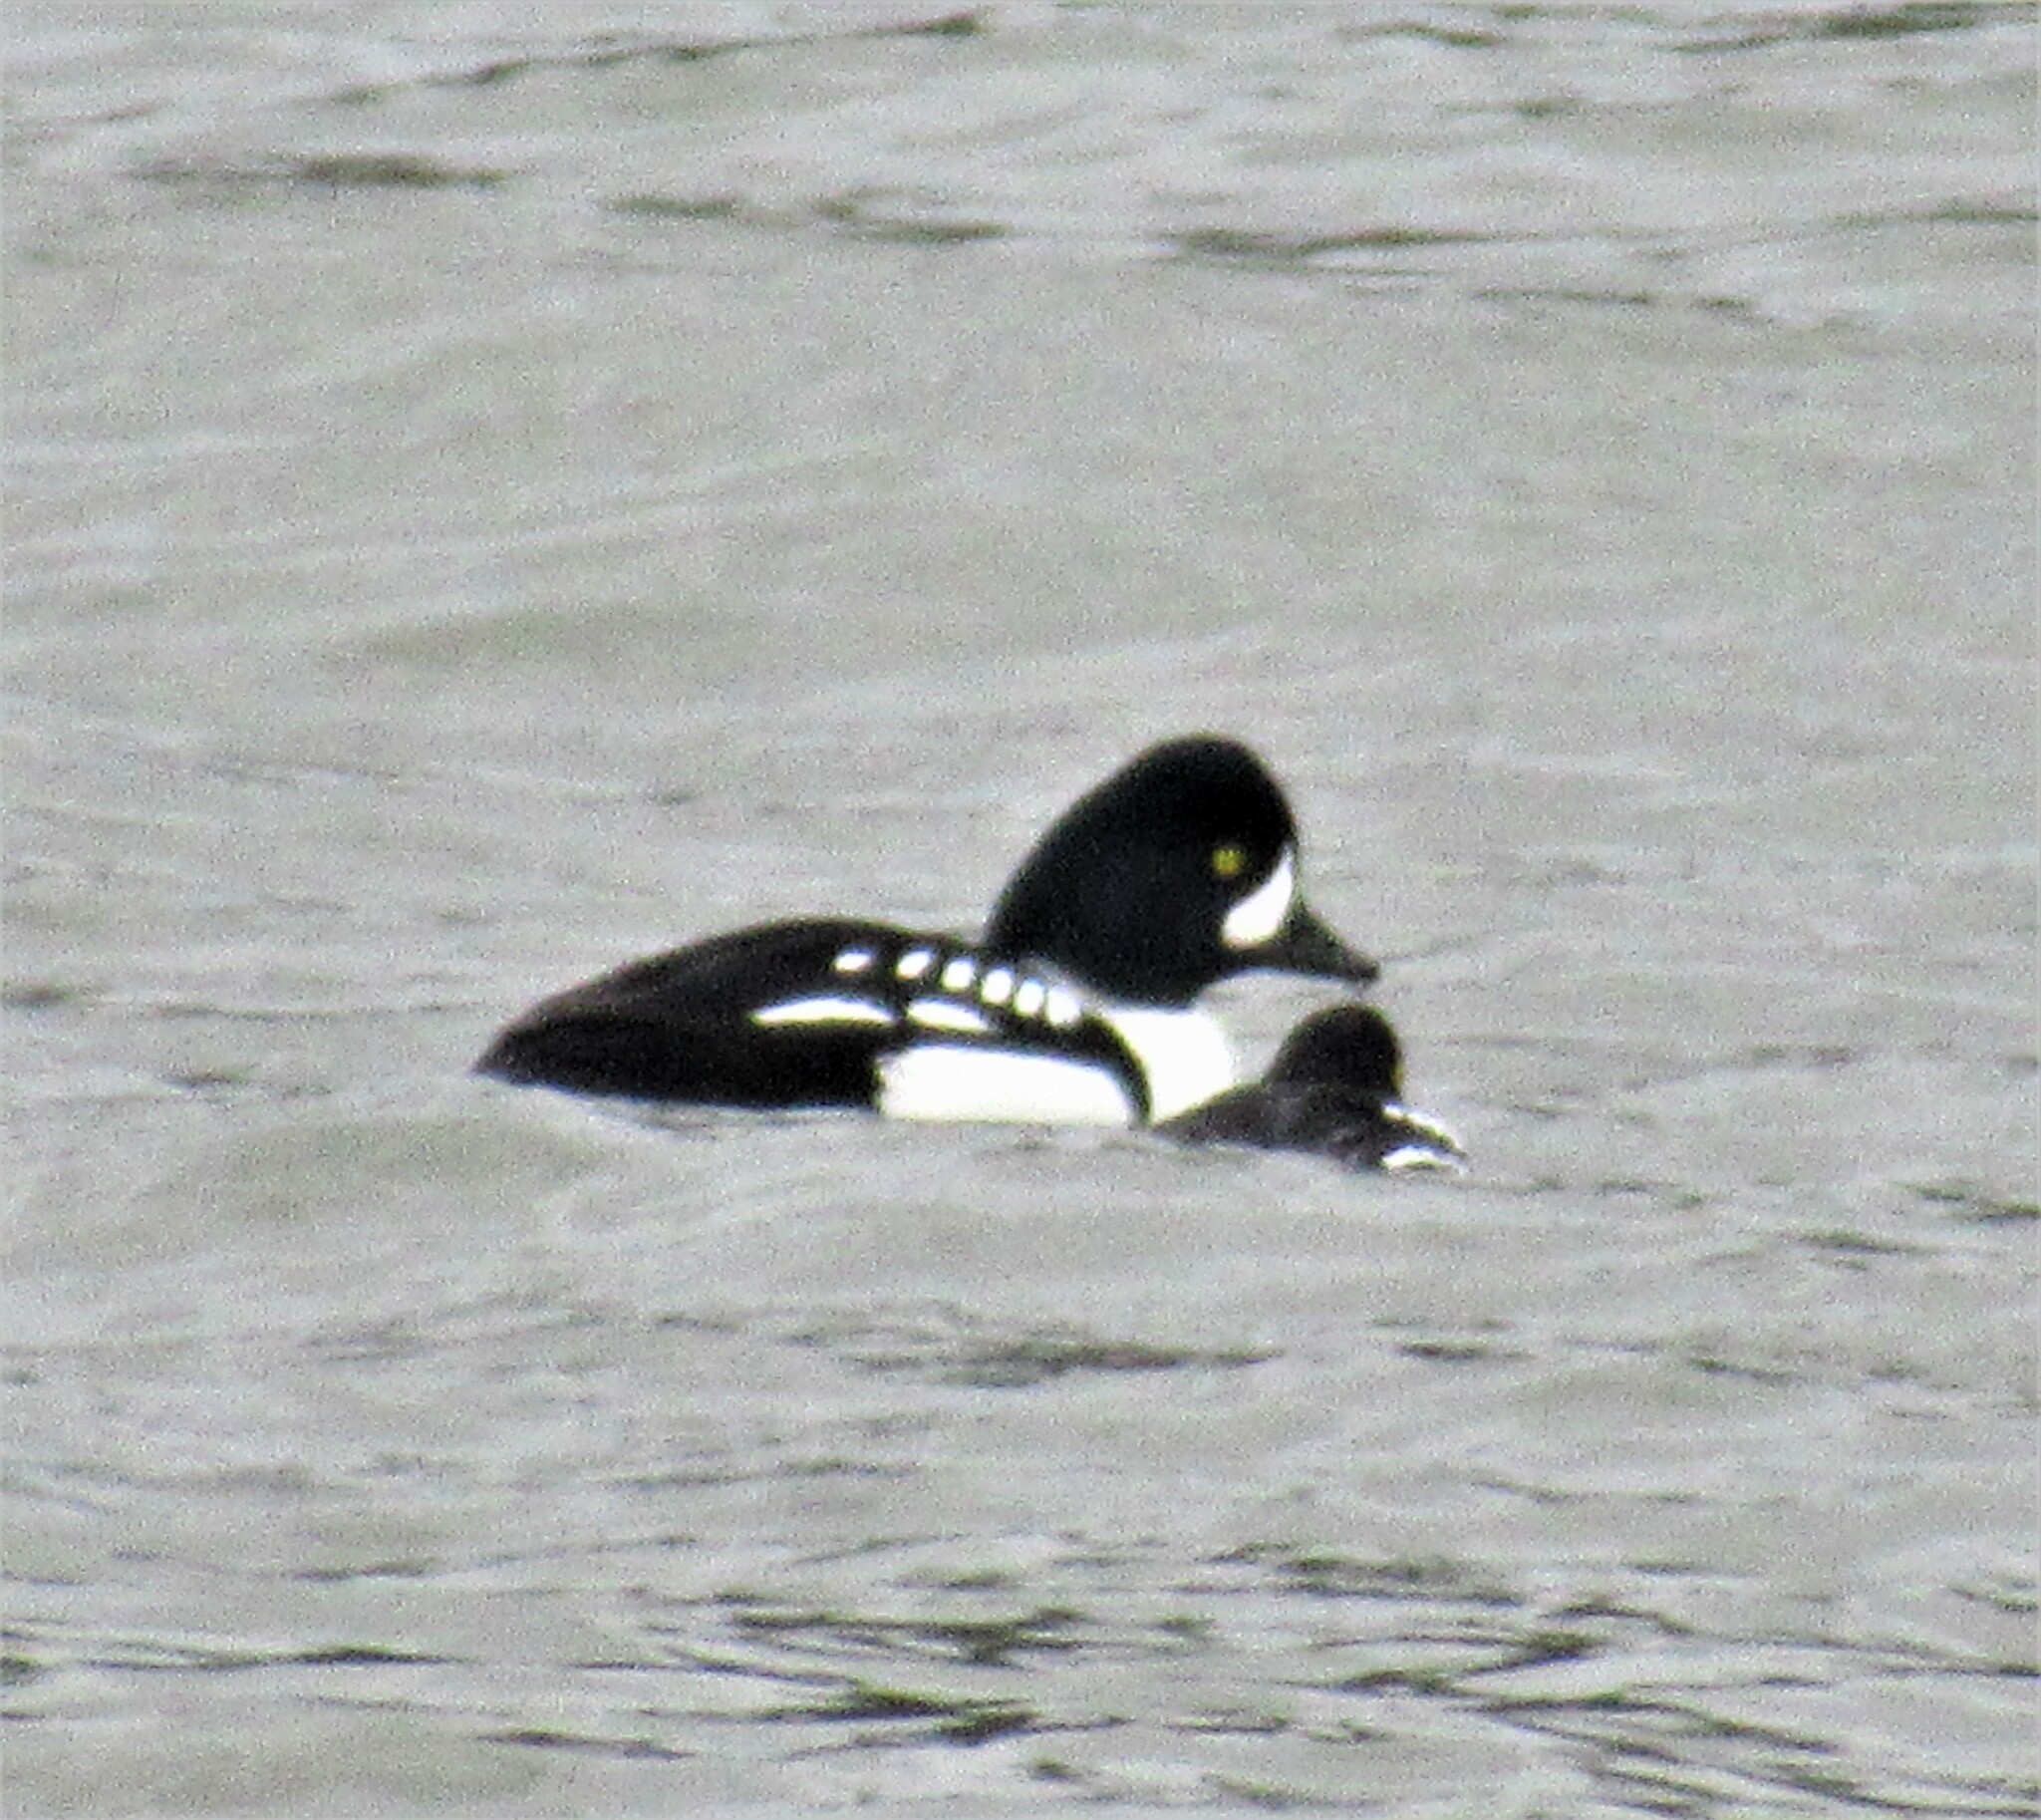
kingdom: Animalia
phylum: Chordata
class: Aves
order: Anseriformes
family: Anatidae
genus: Bucephala
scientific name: Bucephala islandica
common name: Barrow's goldeneye
